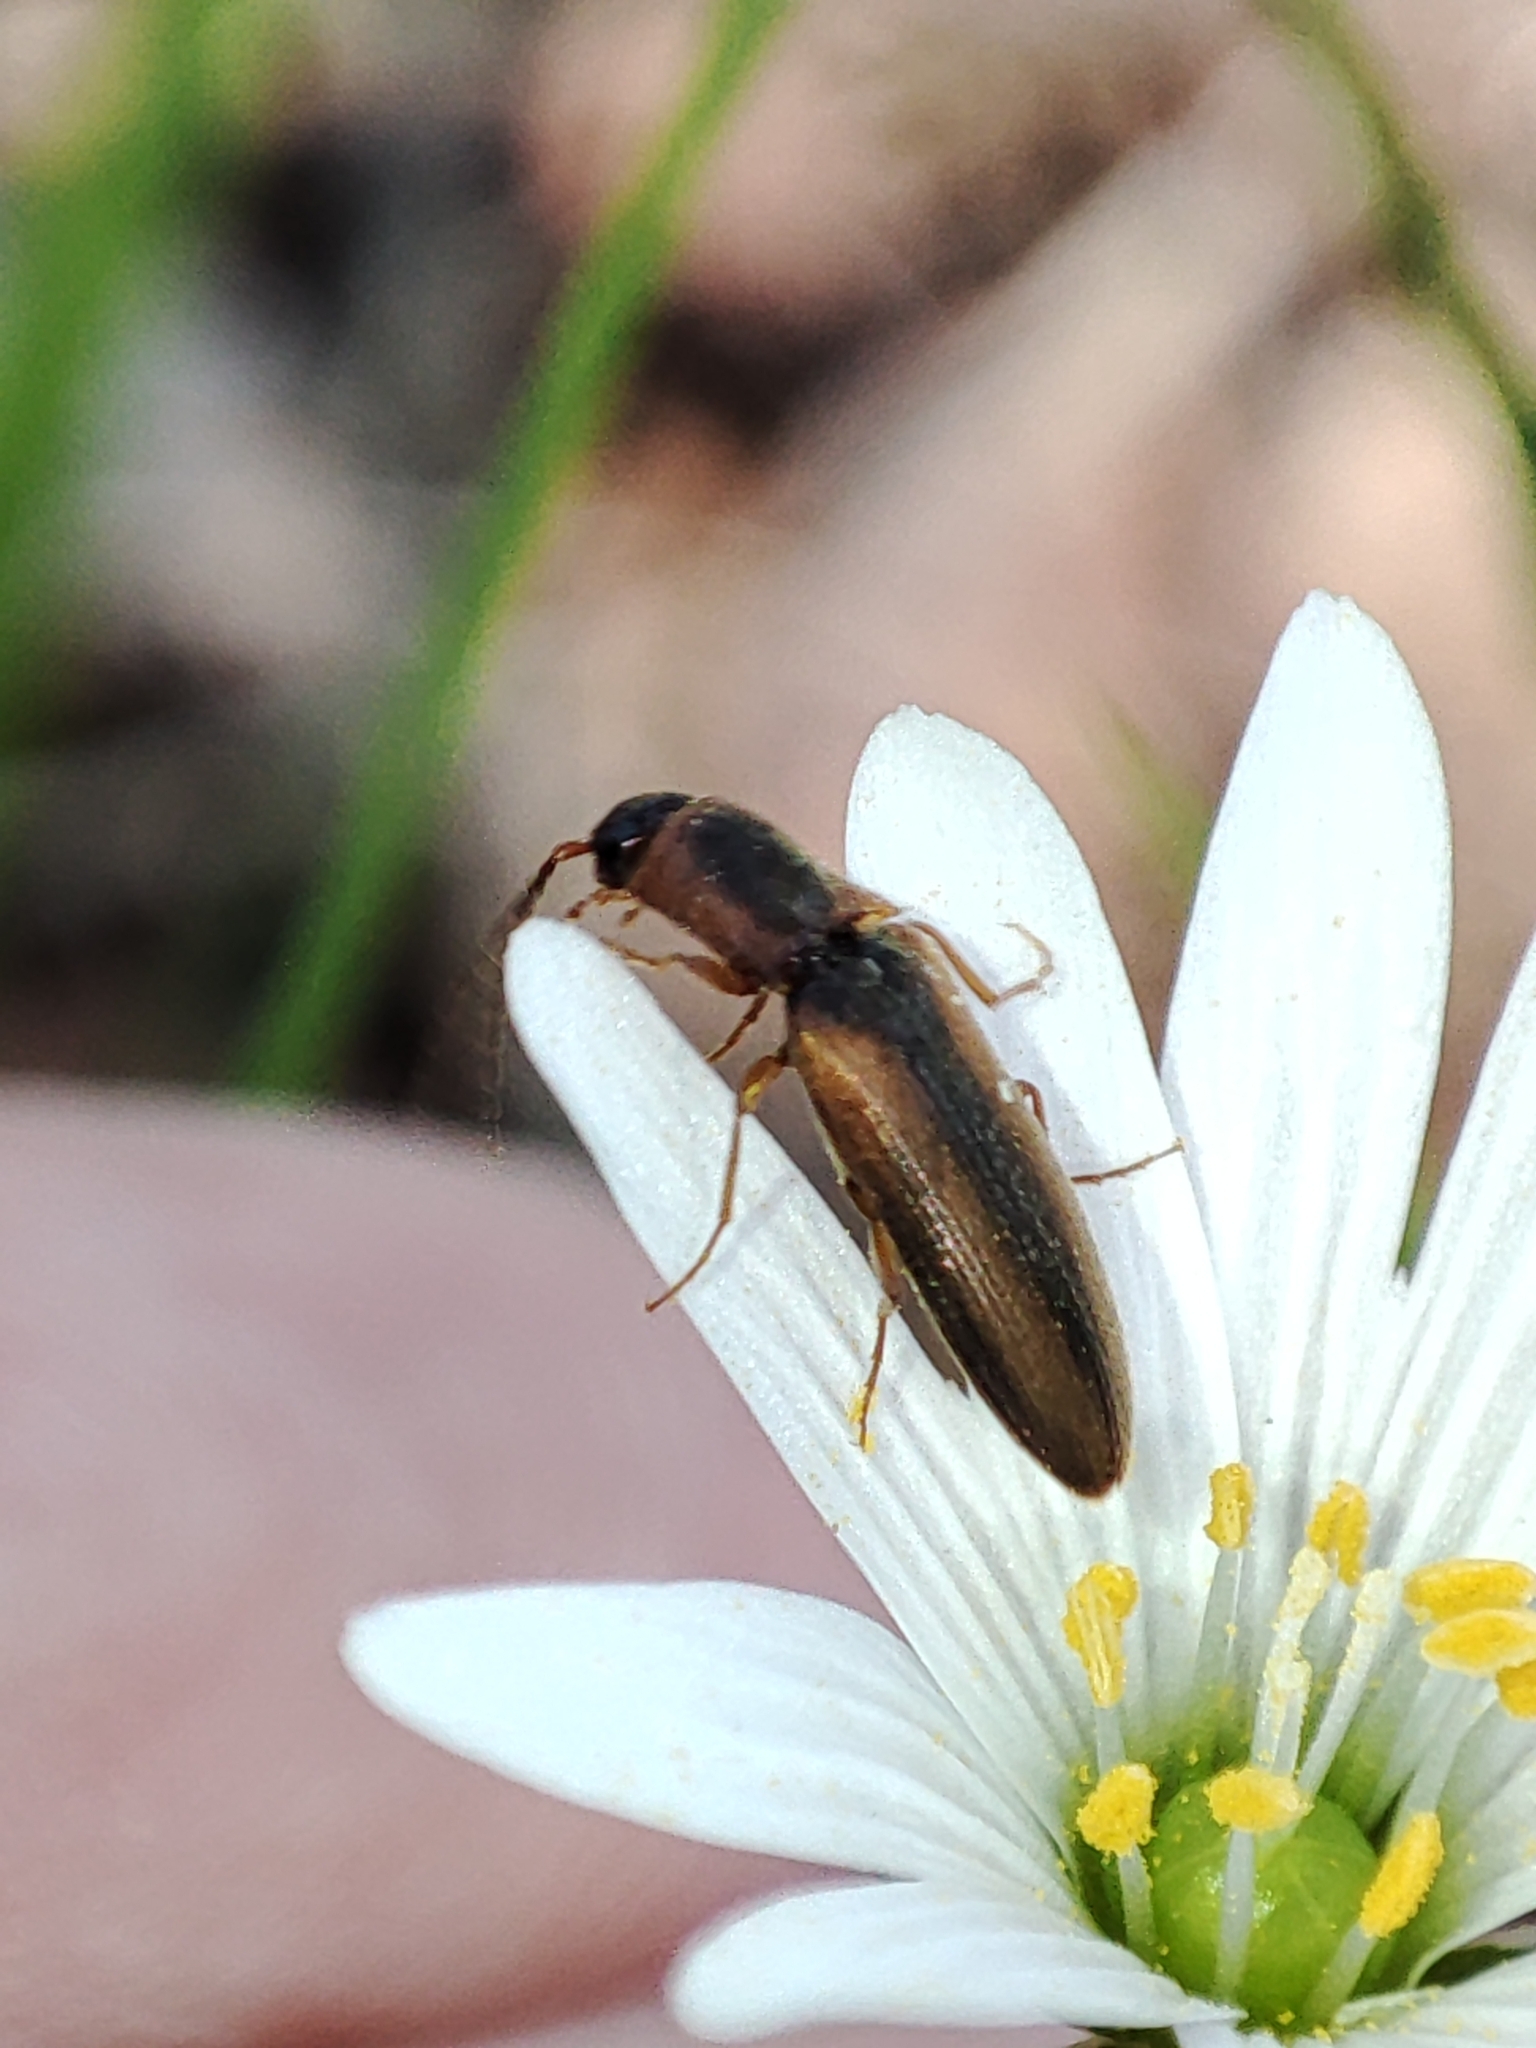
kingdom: Animalia
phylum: Arthropoda
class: Insecta
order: Coleoptera
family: Elateridae
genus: Dalopius
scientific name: Dalopius marginatus
